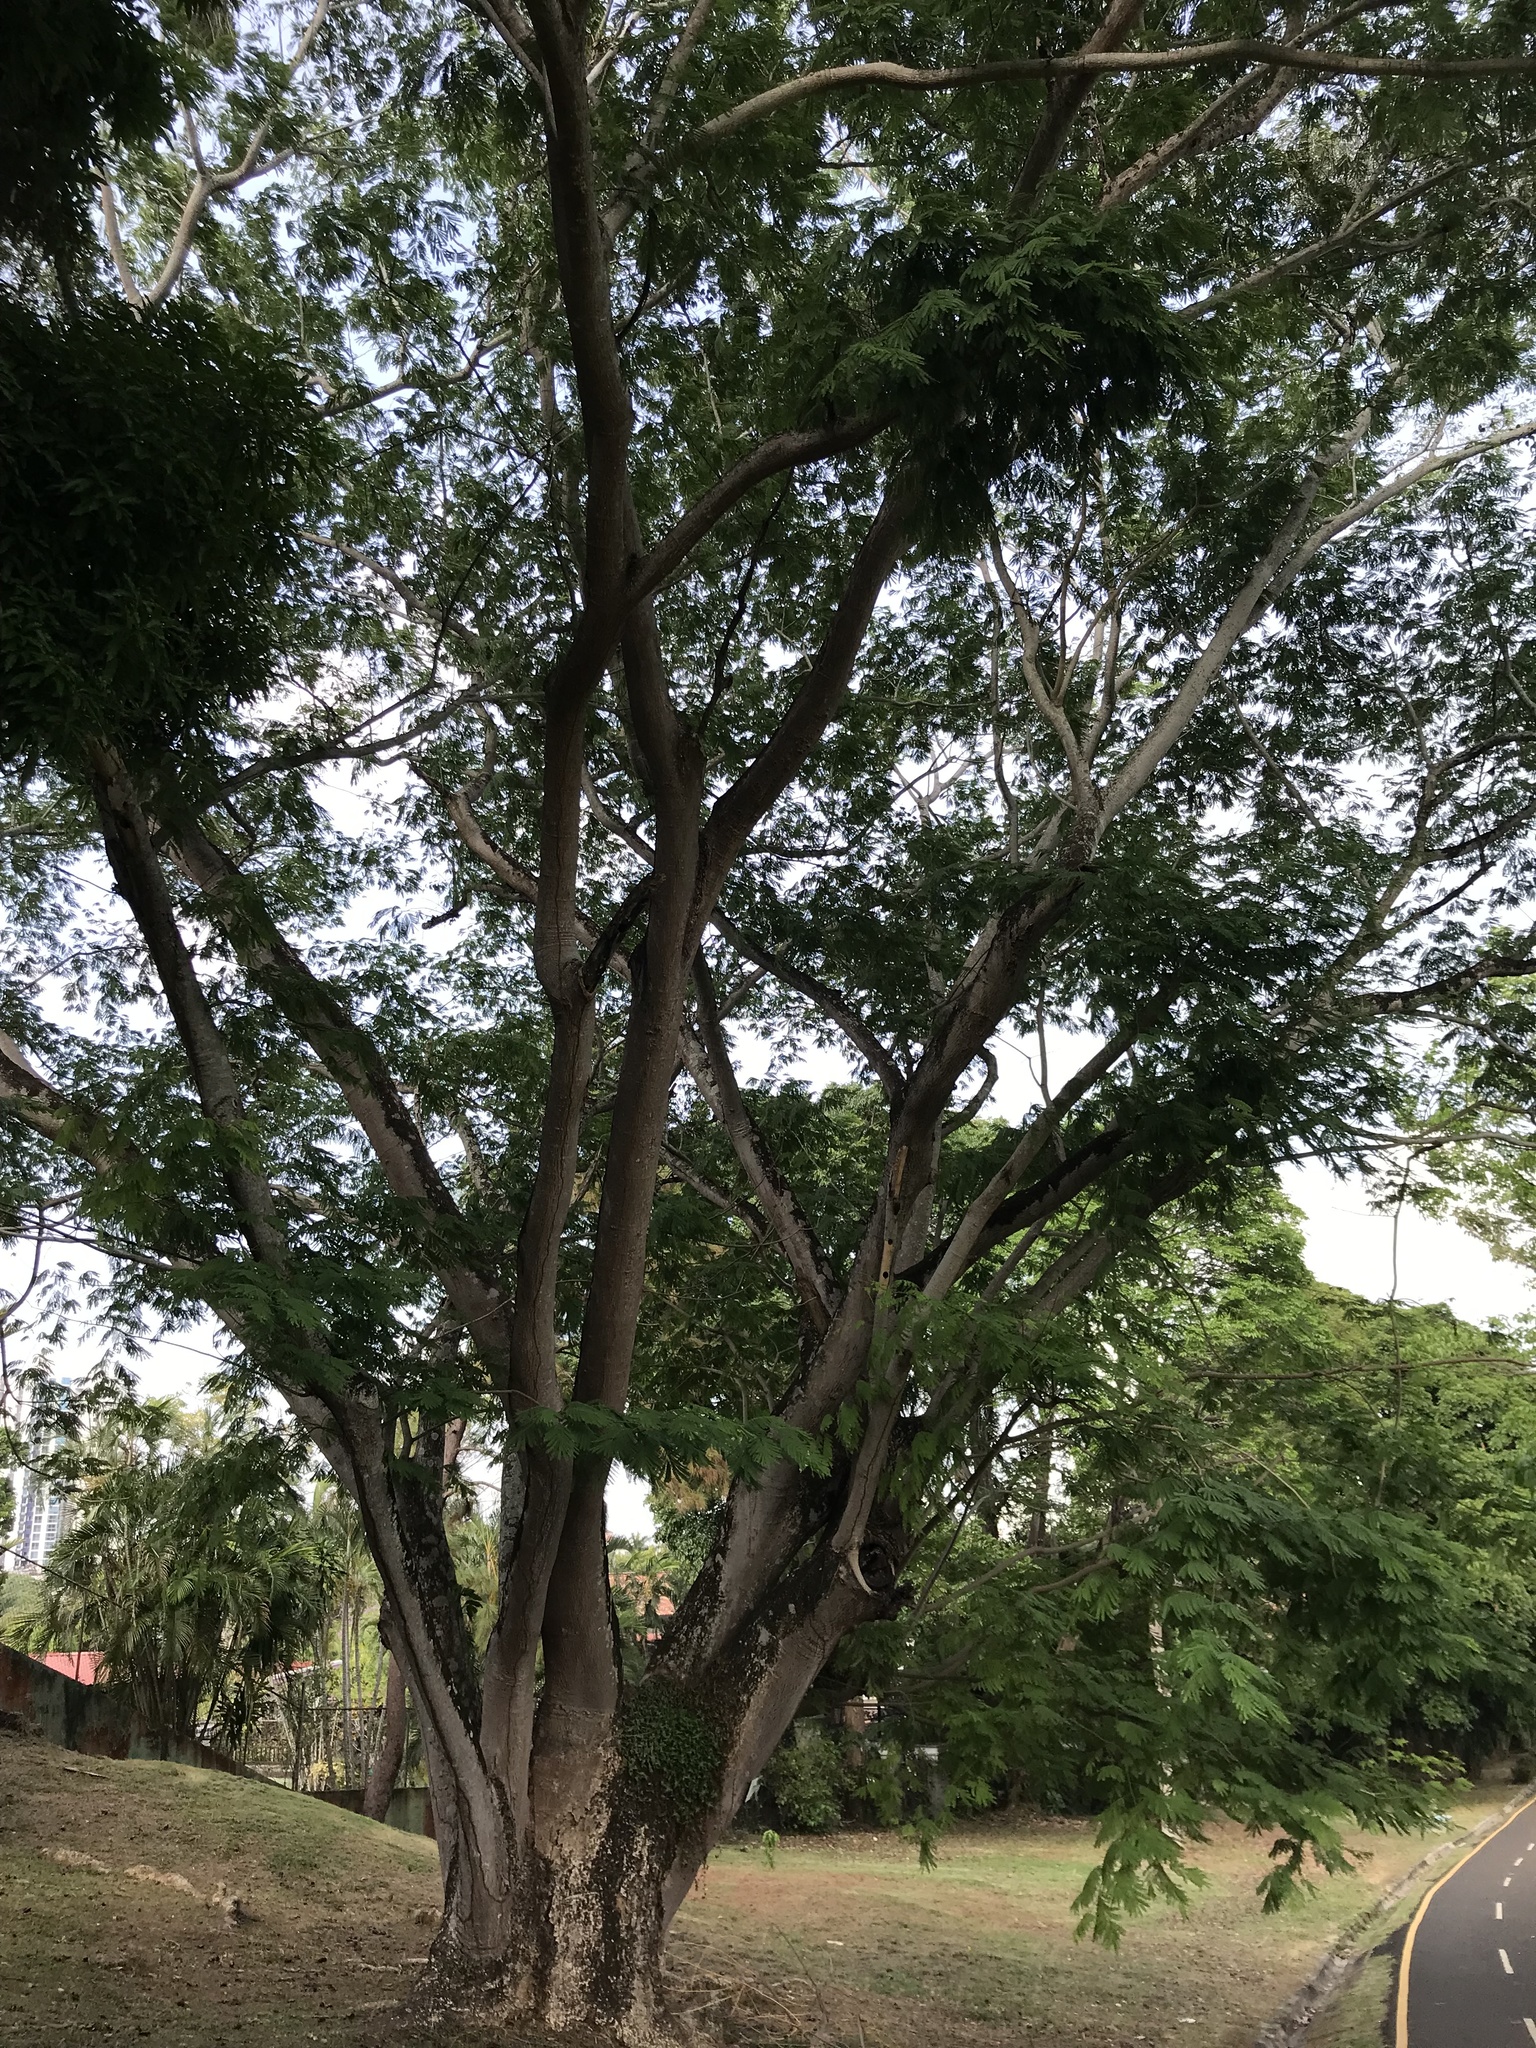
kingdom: Plantae
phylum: Tracheophyta
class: Magnoliopsida
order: Fabales
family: Fabaceae
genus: Enterolobium
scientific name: Enterolobium cyclocarpum
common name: Ear tree
